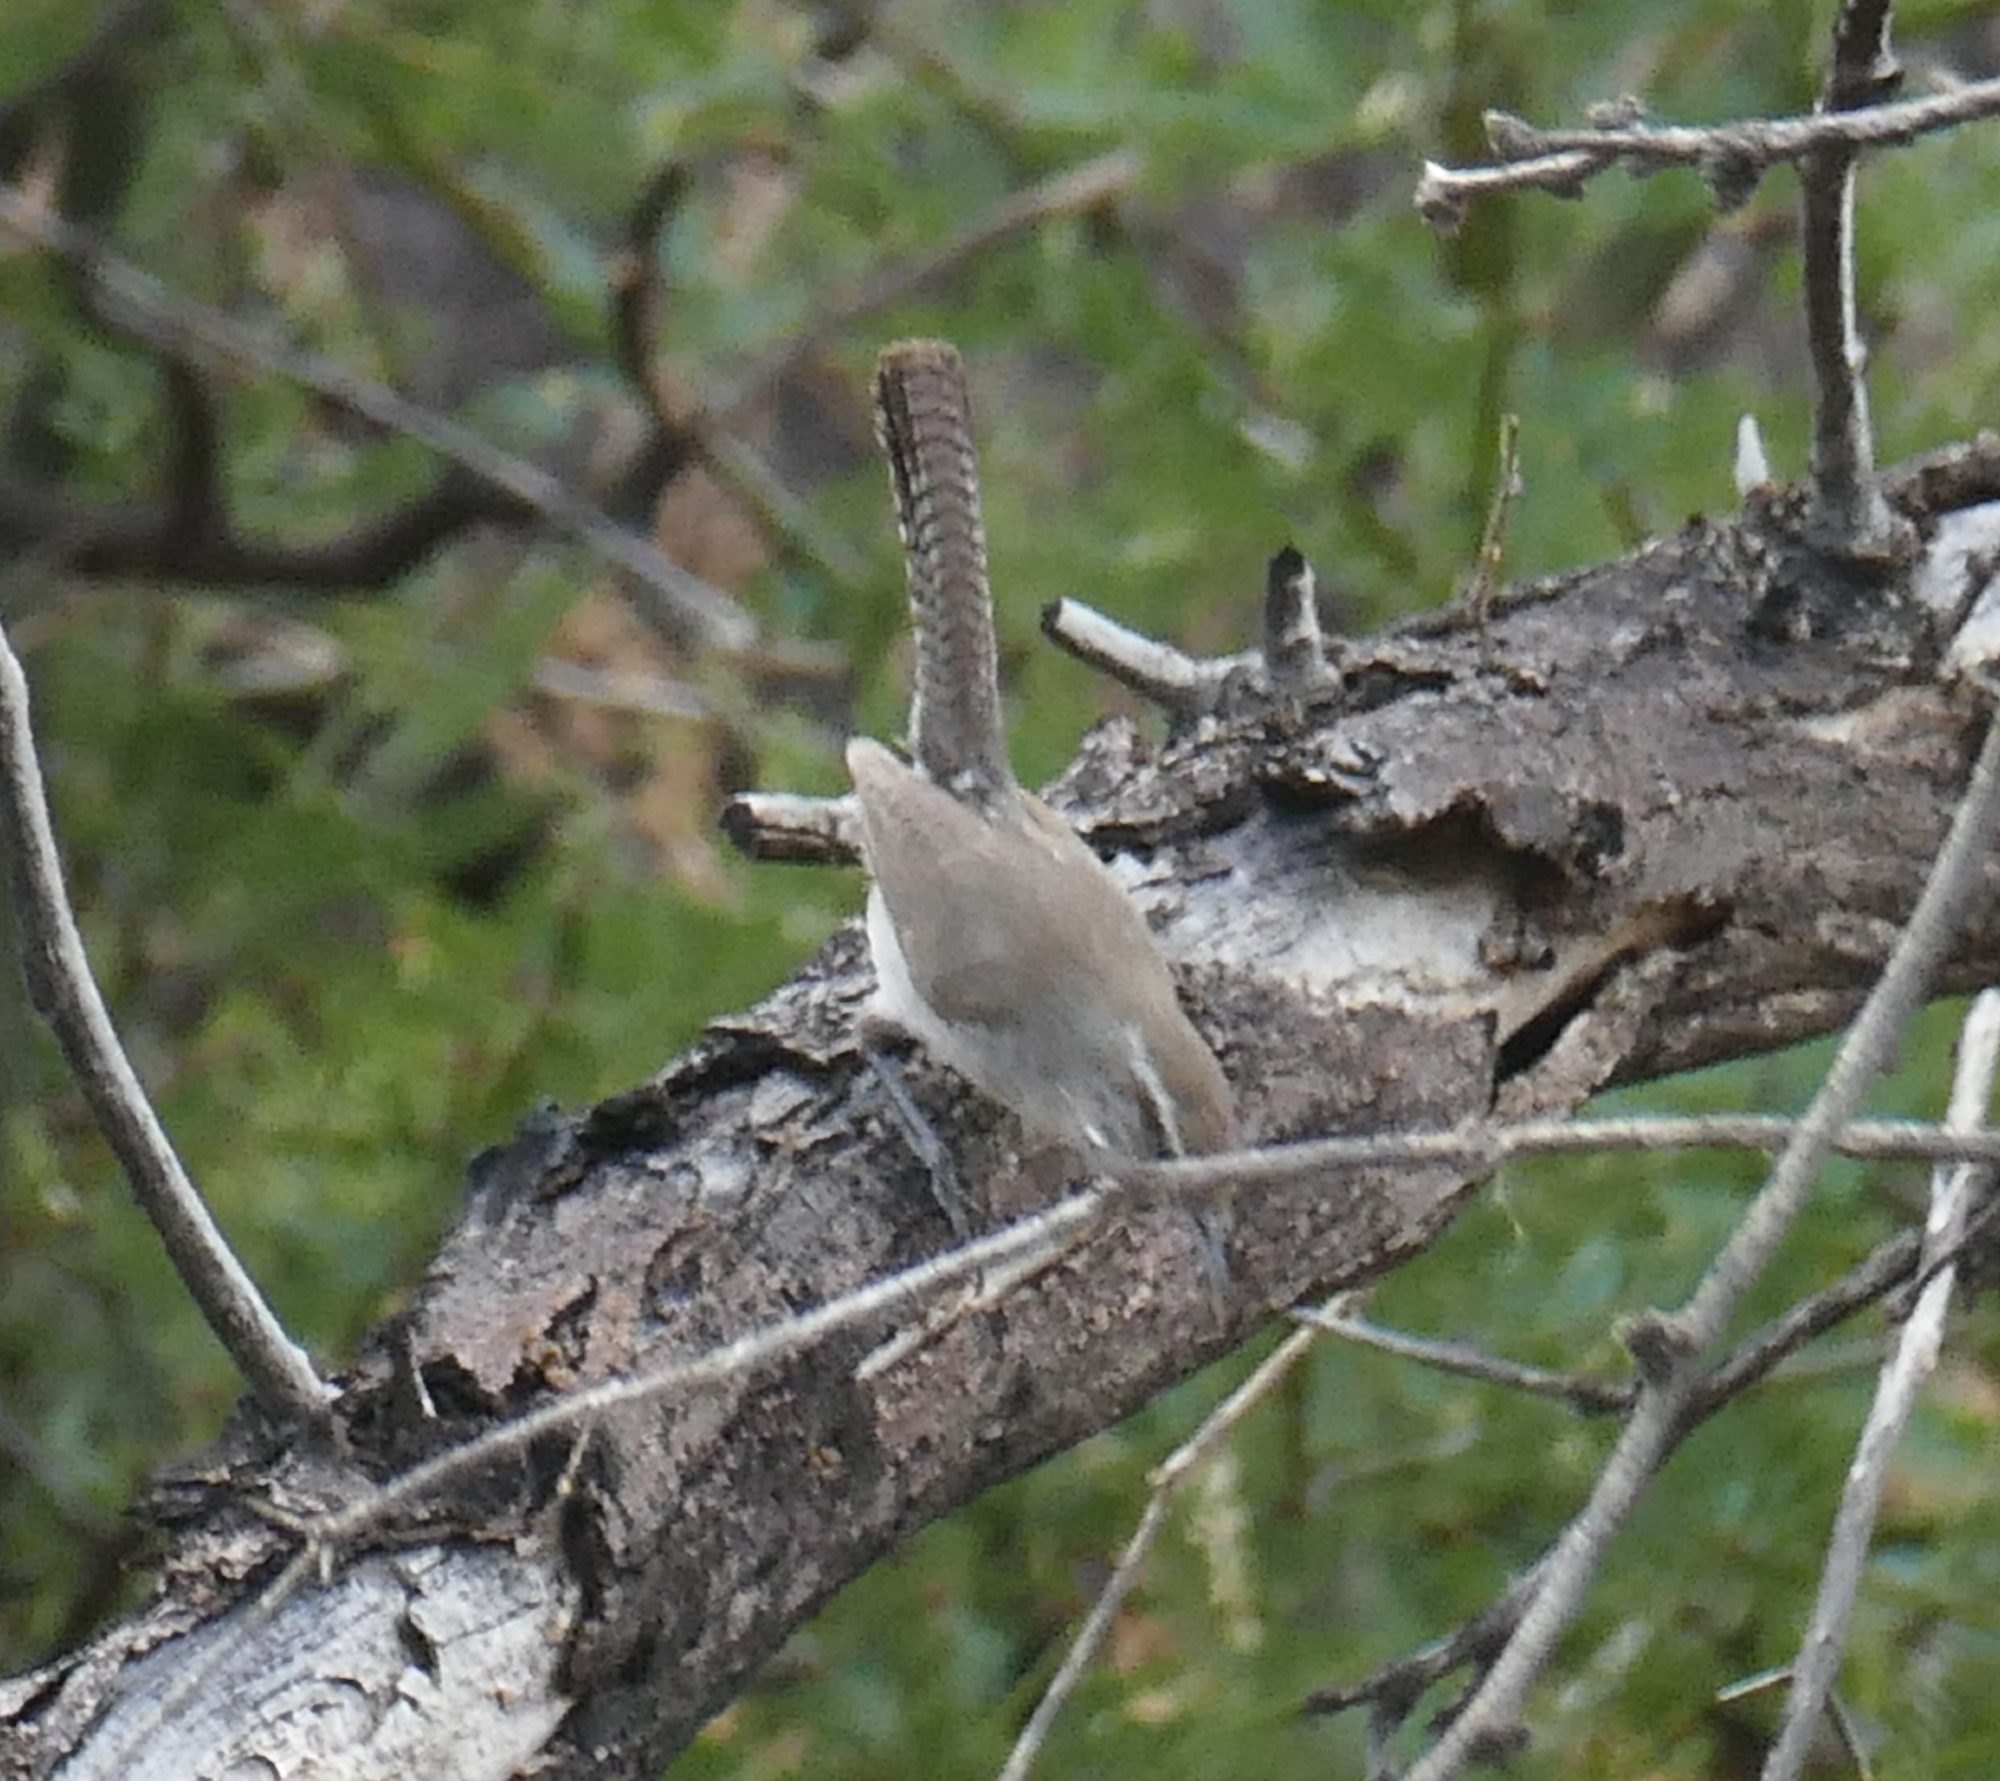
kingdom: Animalia
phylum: Chordata
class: Aves
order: Passeriformes
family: Troglodytidae
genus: Thryomanes
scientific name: Thryomanes bewickii
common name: Bewick's wren
